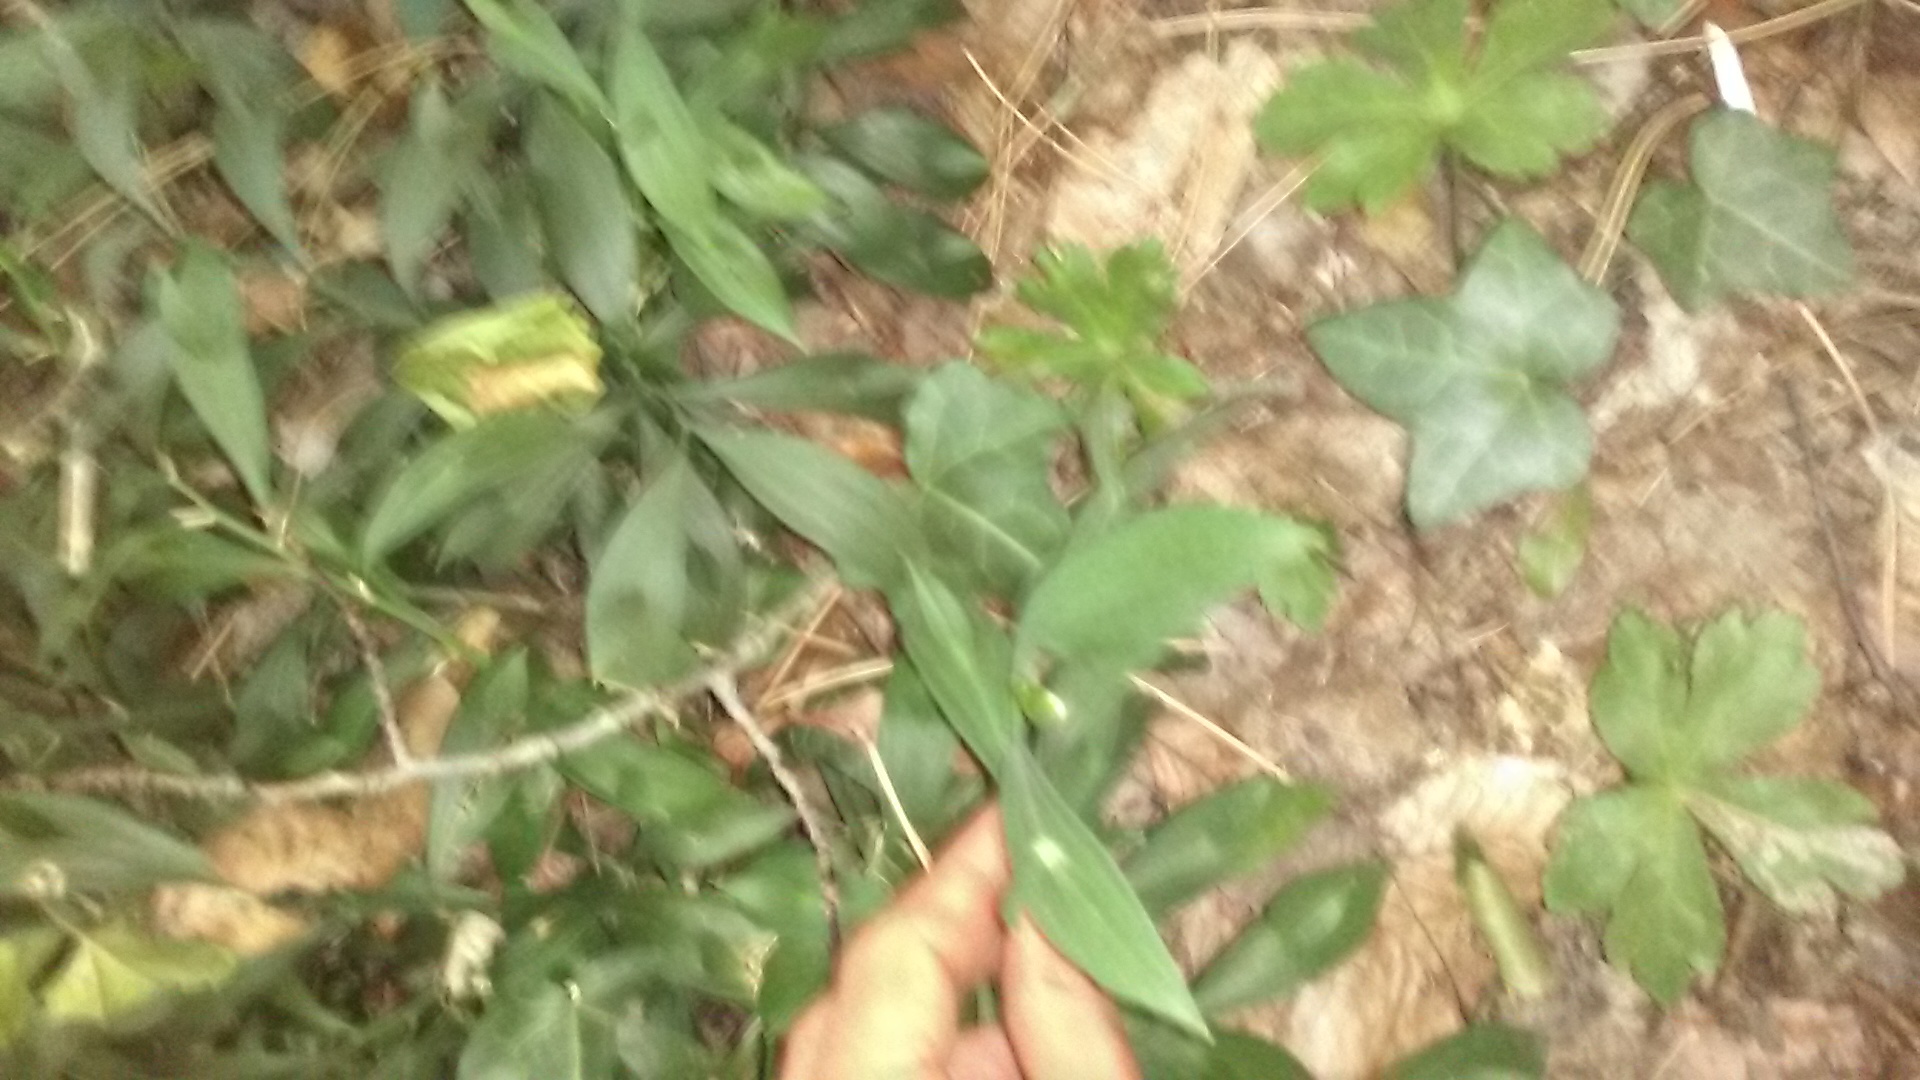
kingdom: Plantae
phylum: Tracheophyta
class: Liliopsida
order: Asparagales
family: Asparagaceae
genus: Ruscus
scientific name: Ruscus hypoglossum
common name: Spineless butcher's-broom
